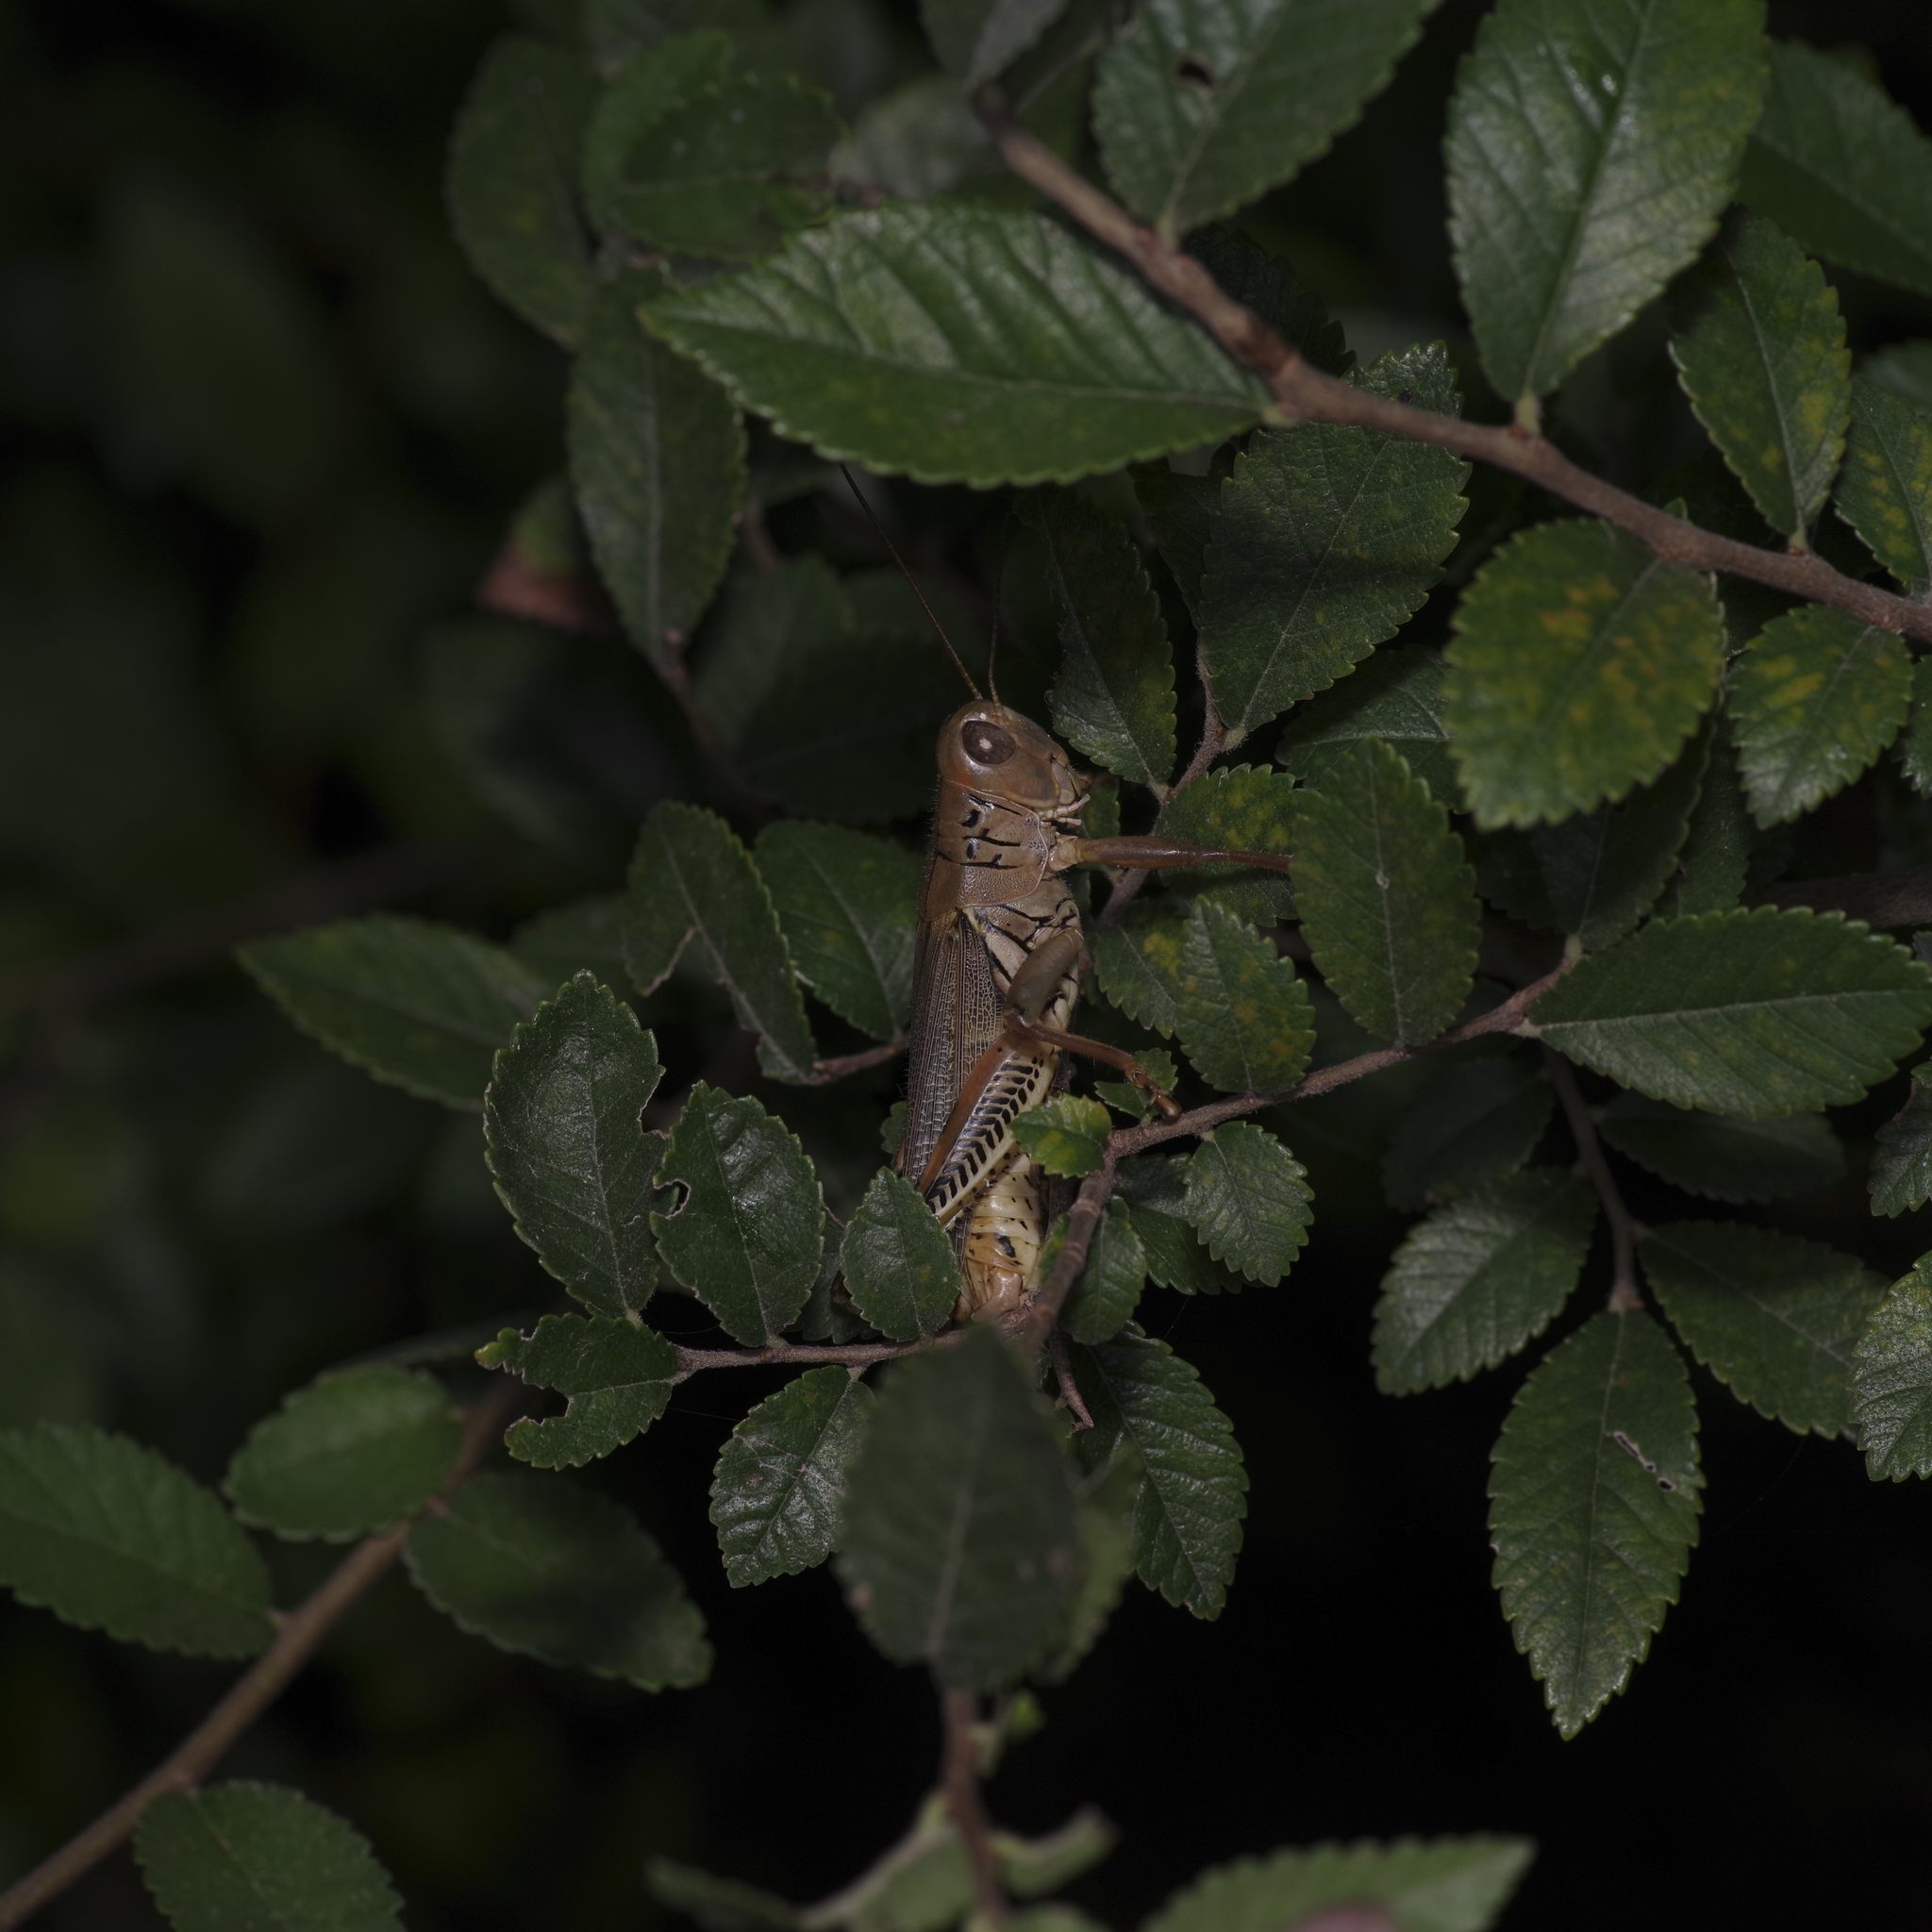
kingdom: Animalia
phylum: Arthropoda
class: Insecta
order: Orthoptera
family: Acrididae
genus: Melanoplus
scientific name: Melanoplus differentialis
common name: Differential grasshopper
